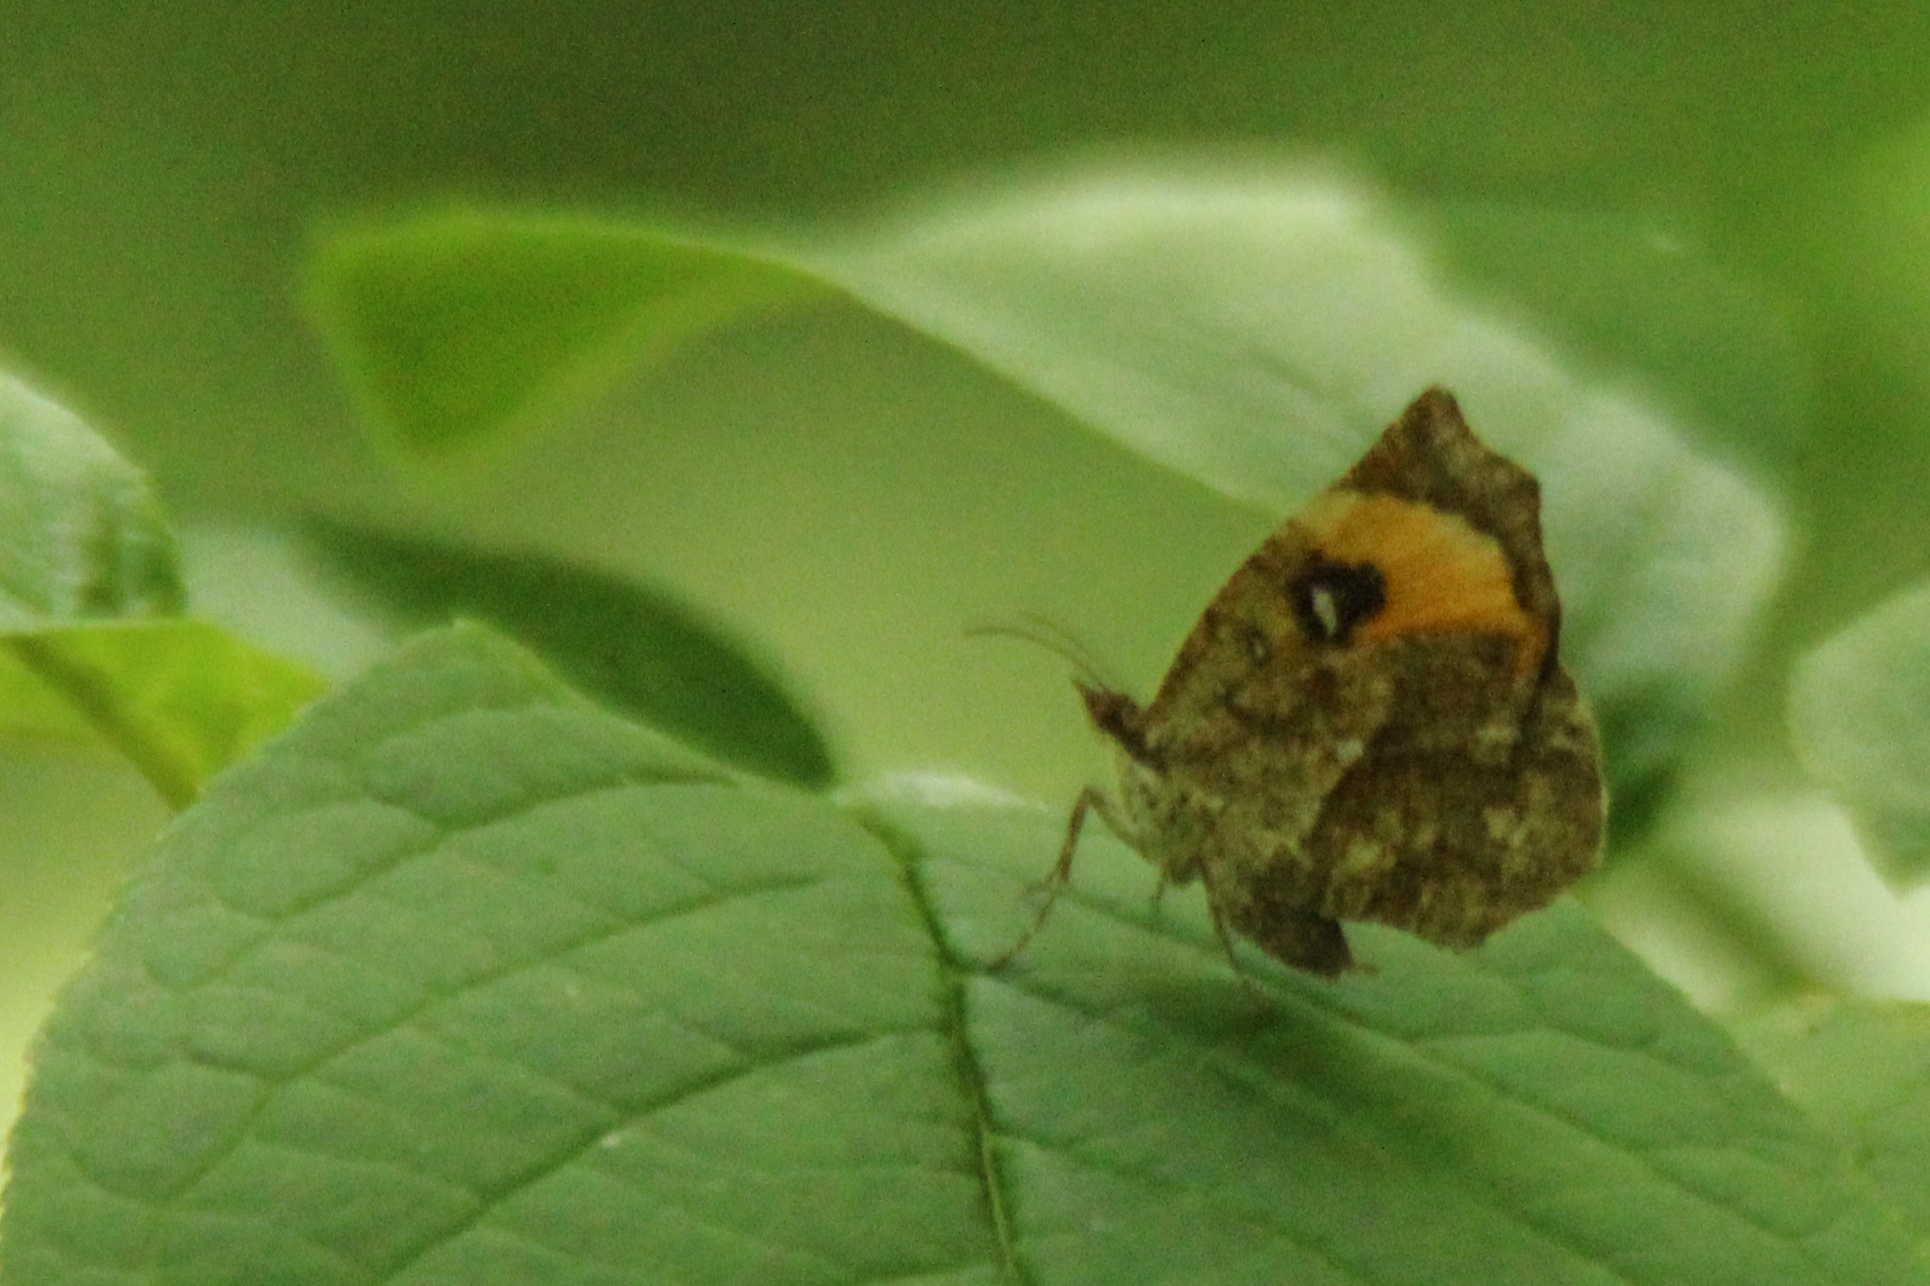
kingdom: Animalia
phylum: Arthropoda
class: Insecta
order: Lepidoptera
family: Callidulidae
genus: Pterodecta
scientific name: Pterodecta felderi
